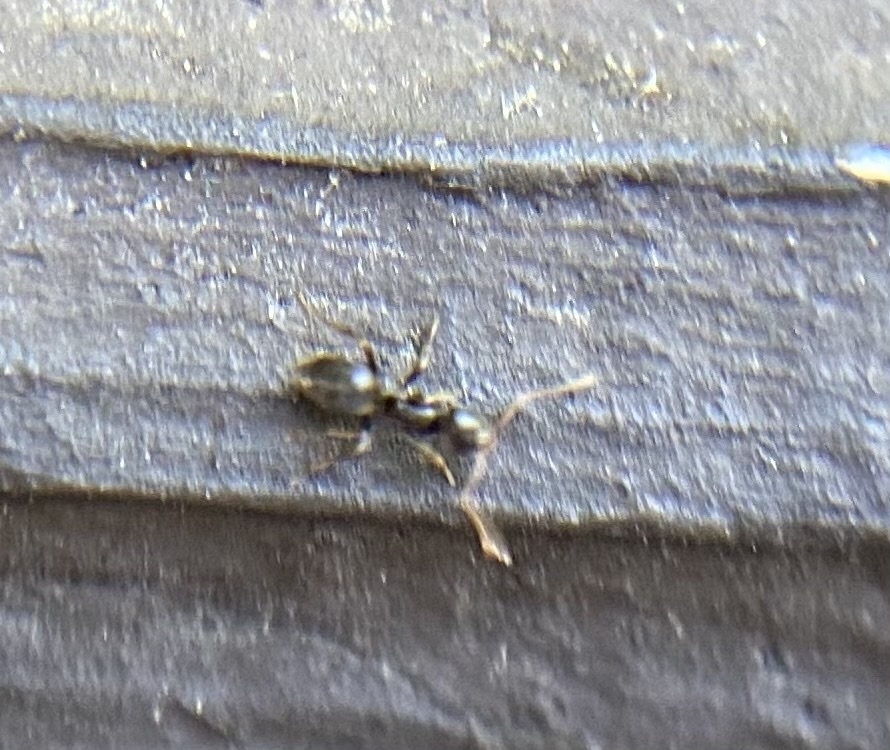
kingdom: Animalia
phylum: Arthropoda
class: Insecta
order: Hymenoptera
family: Formicidae
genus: Tapinoma
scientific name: Tapinoma sessile
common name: Odorous house ant
